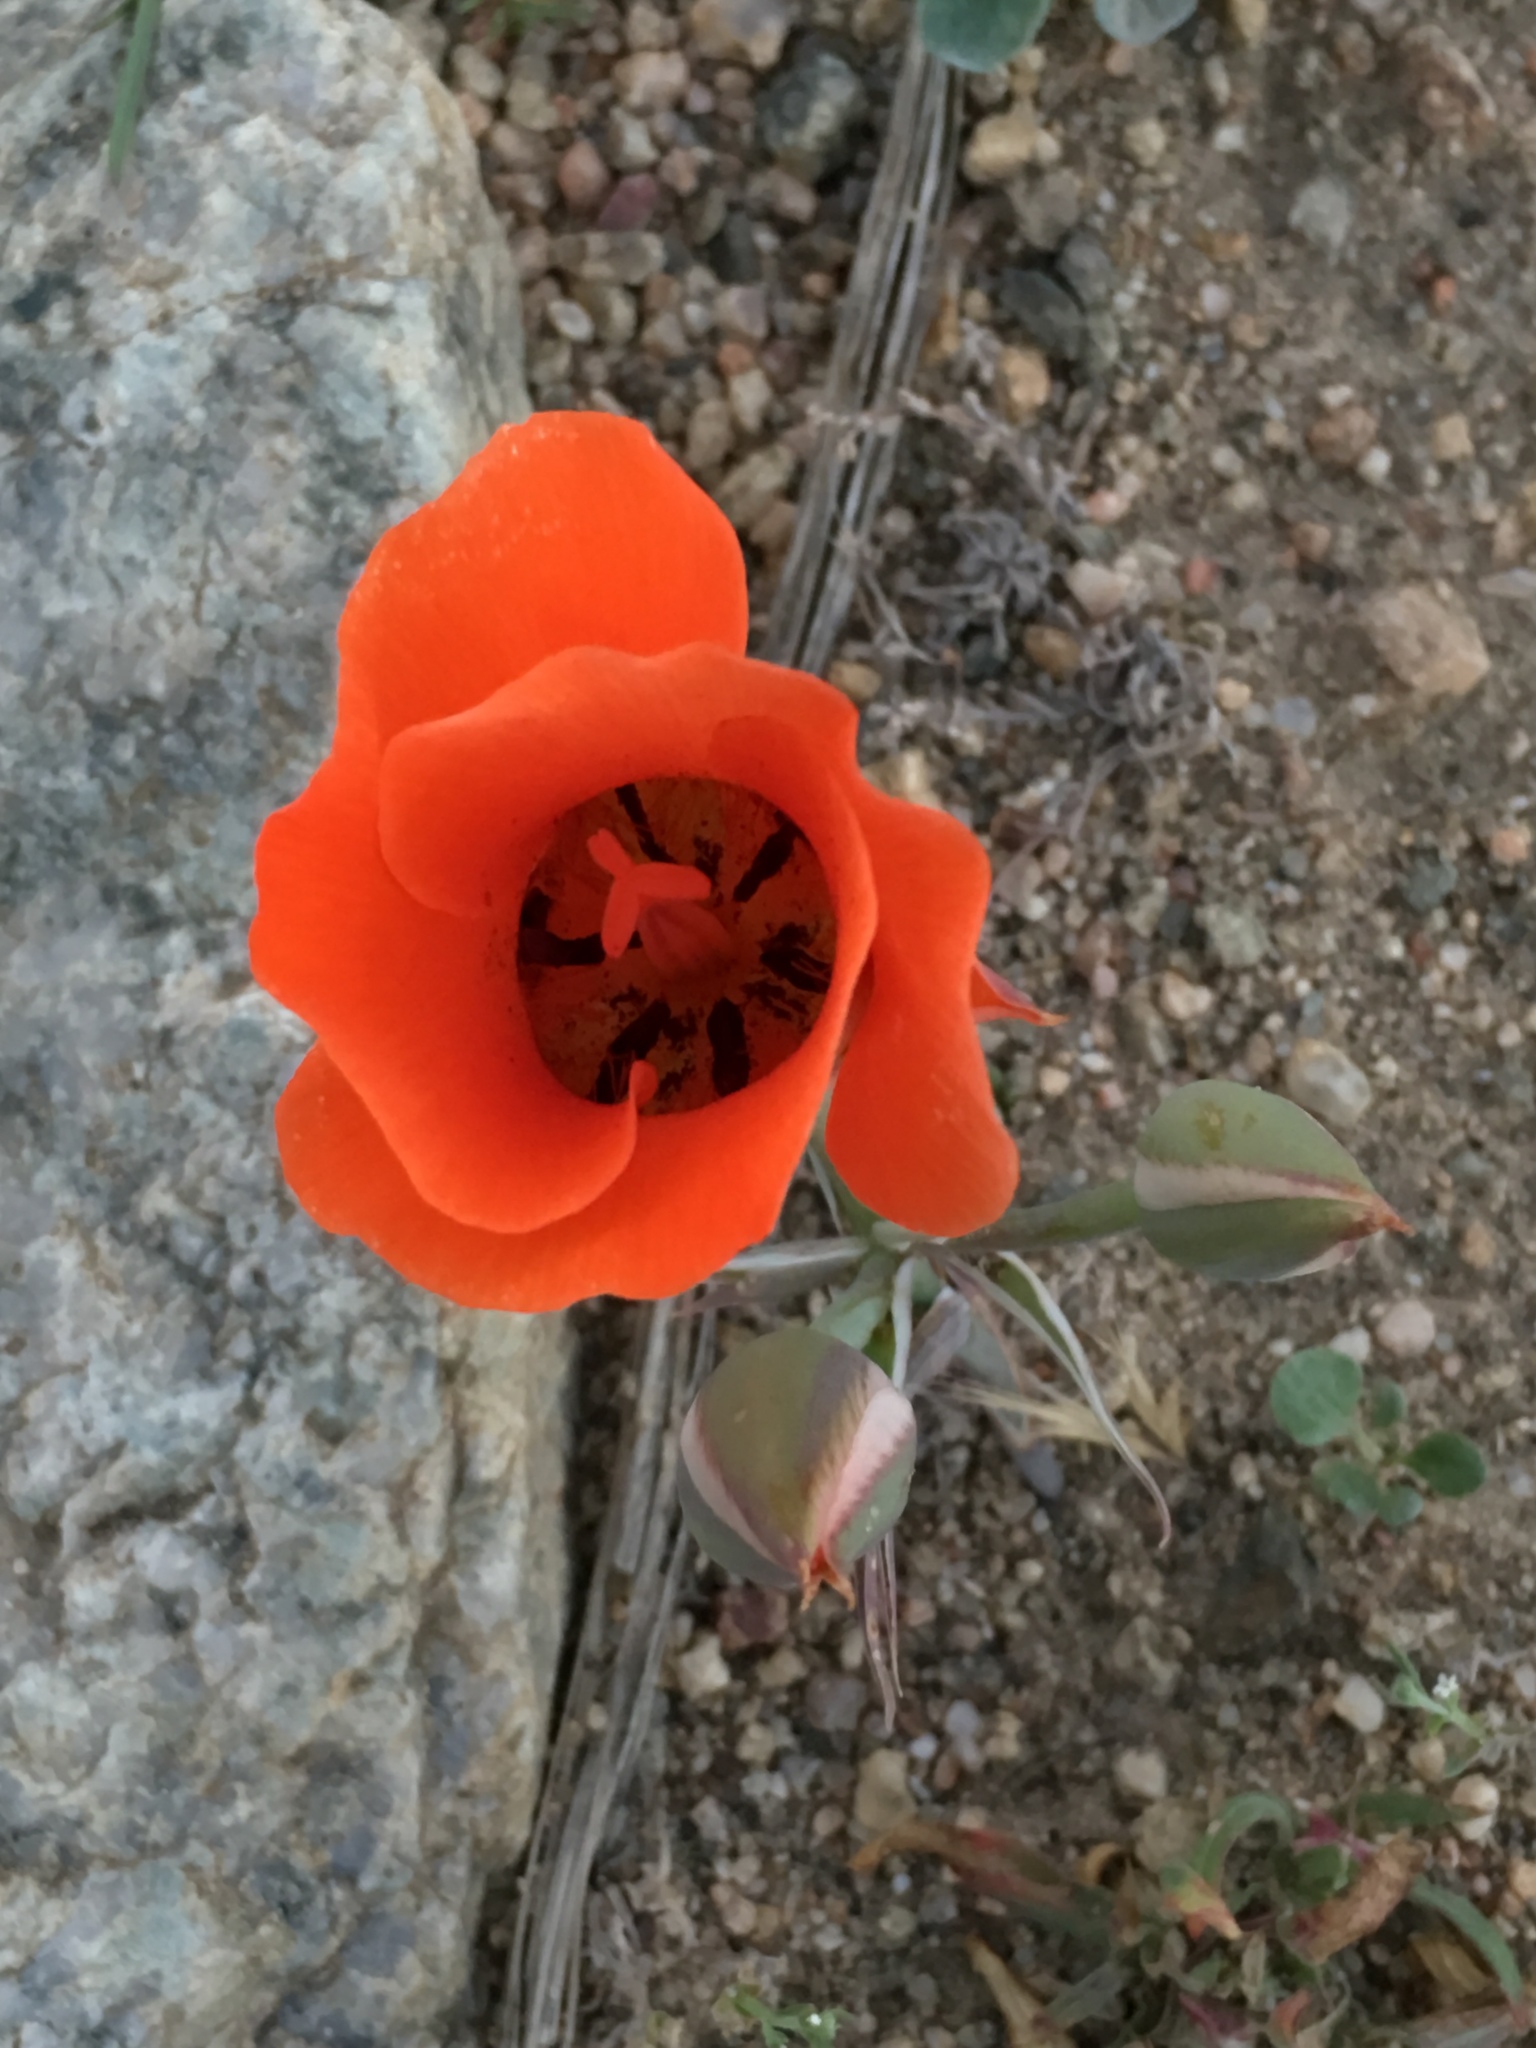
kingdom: Plantae
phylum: Tracheophyta
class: Liliopsida
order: Liliales
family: Liliaceae
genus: Calochortus
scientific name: Calochortus kennedyi
